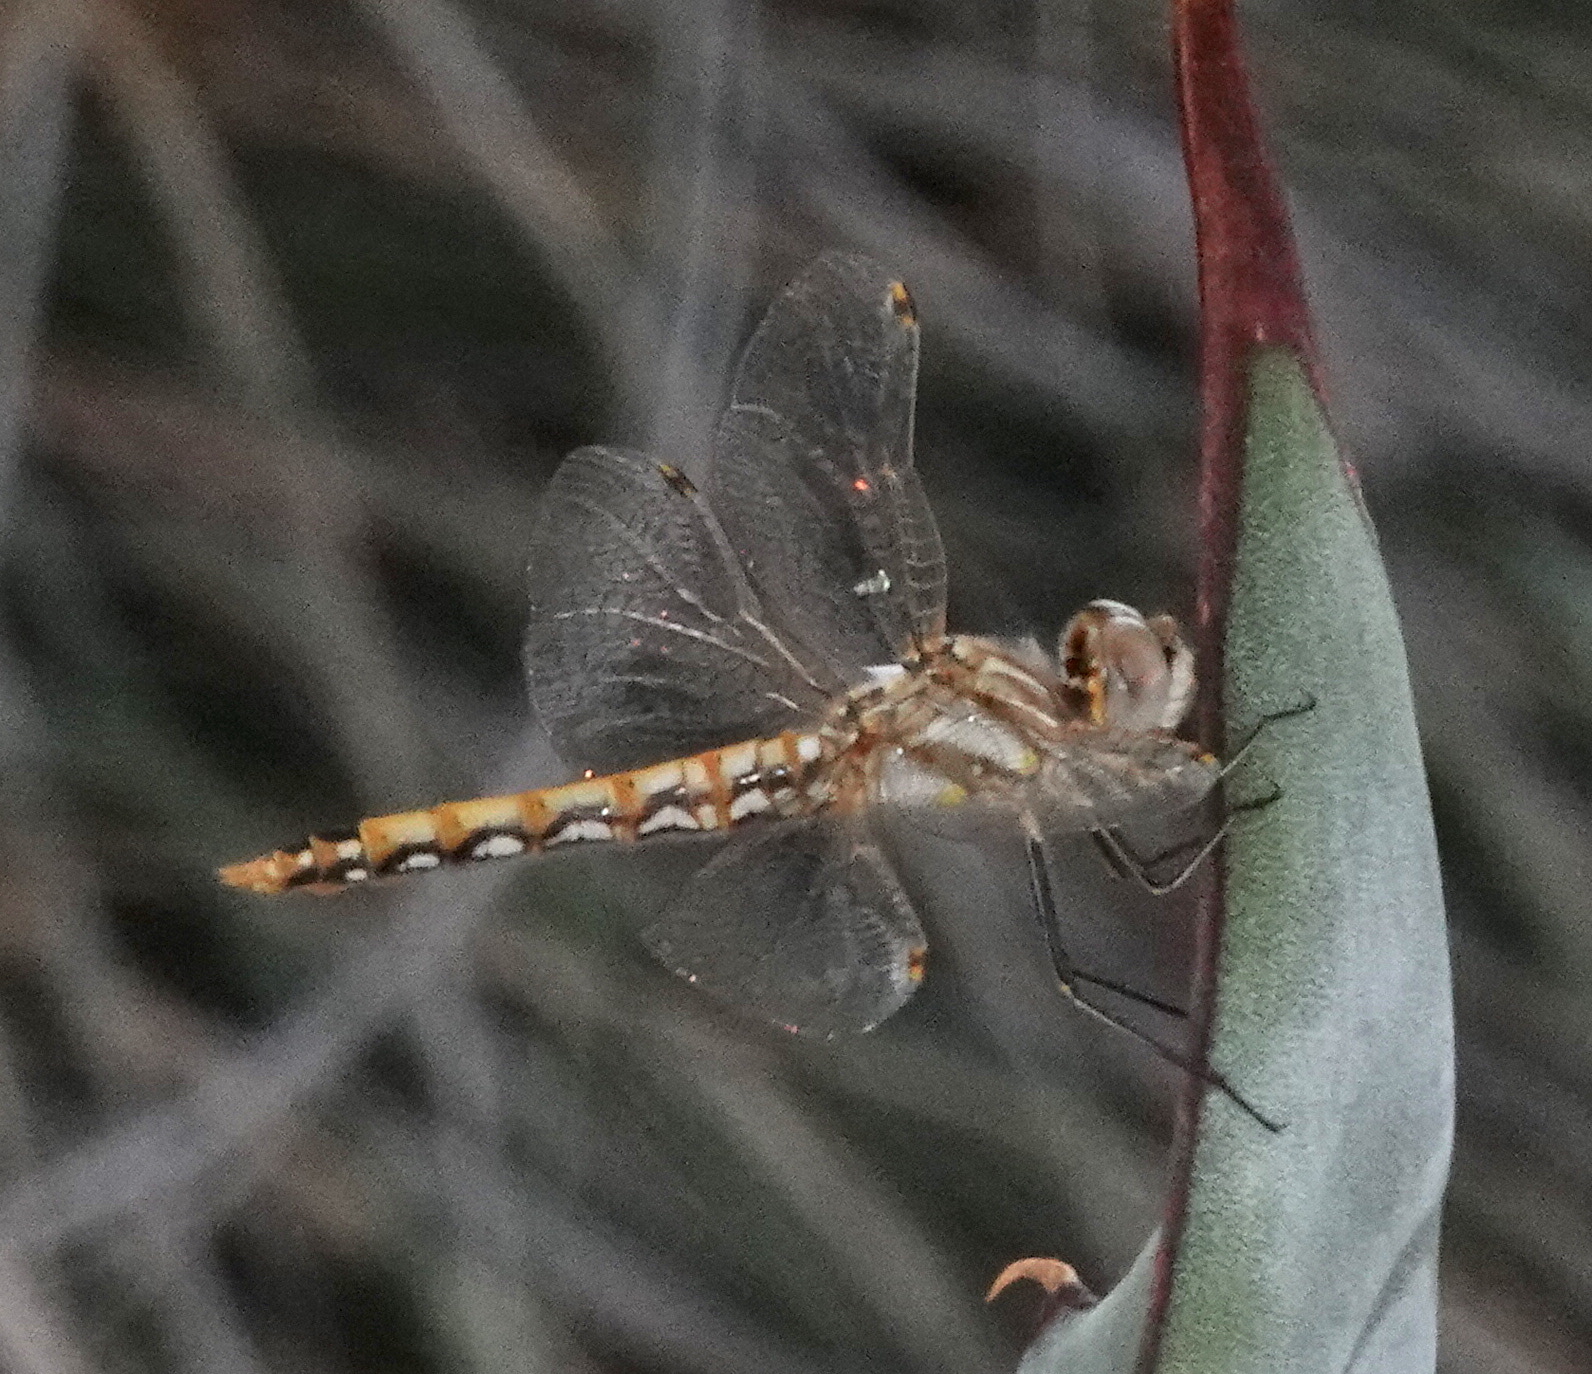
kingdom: Animalia
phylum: Arthropoda
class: Insecta
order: Odonata
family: Libellulidae
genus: Sympetrum
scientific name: Sympetrum corruptum
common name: Variegated meadowhawk
